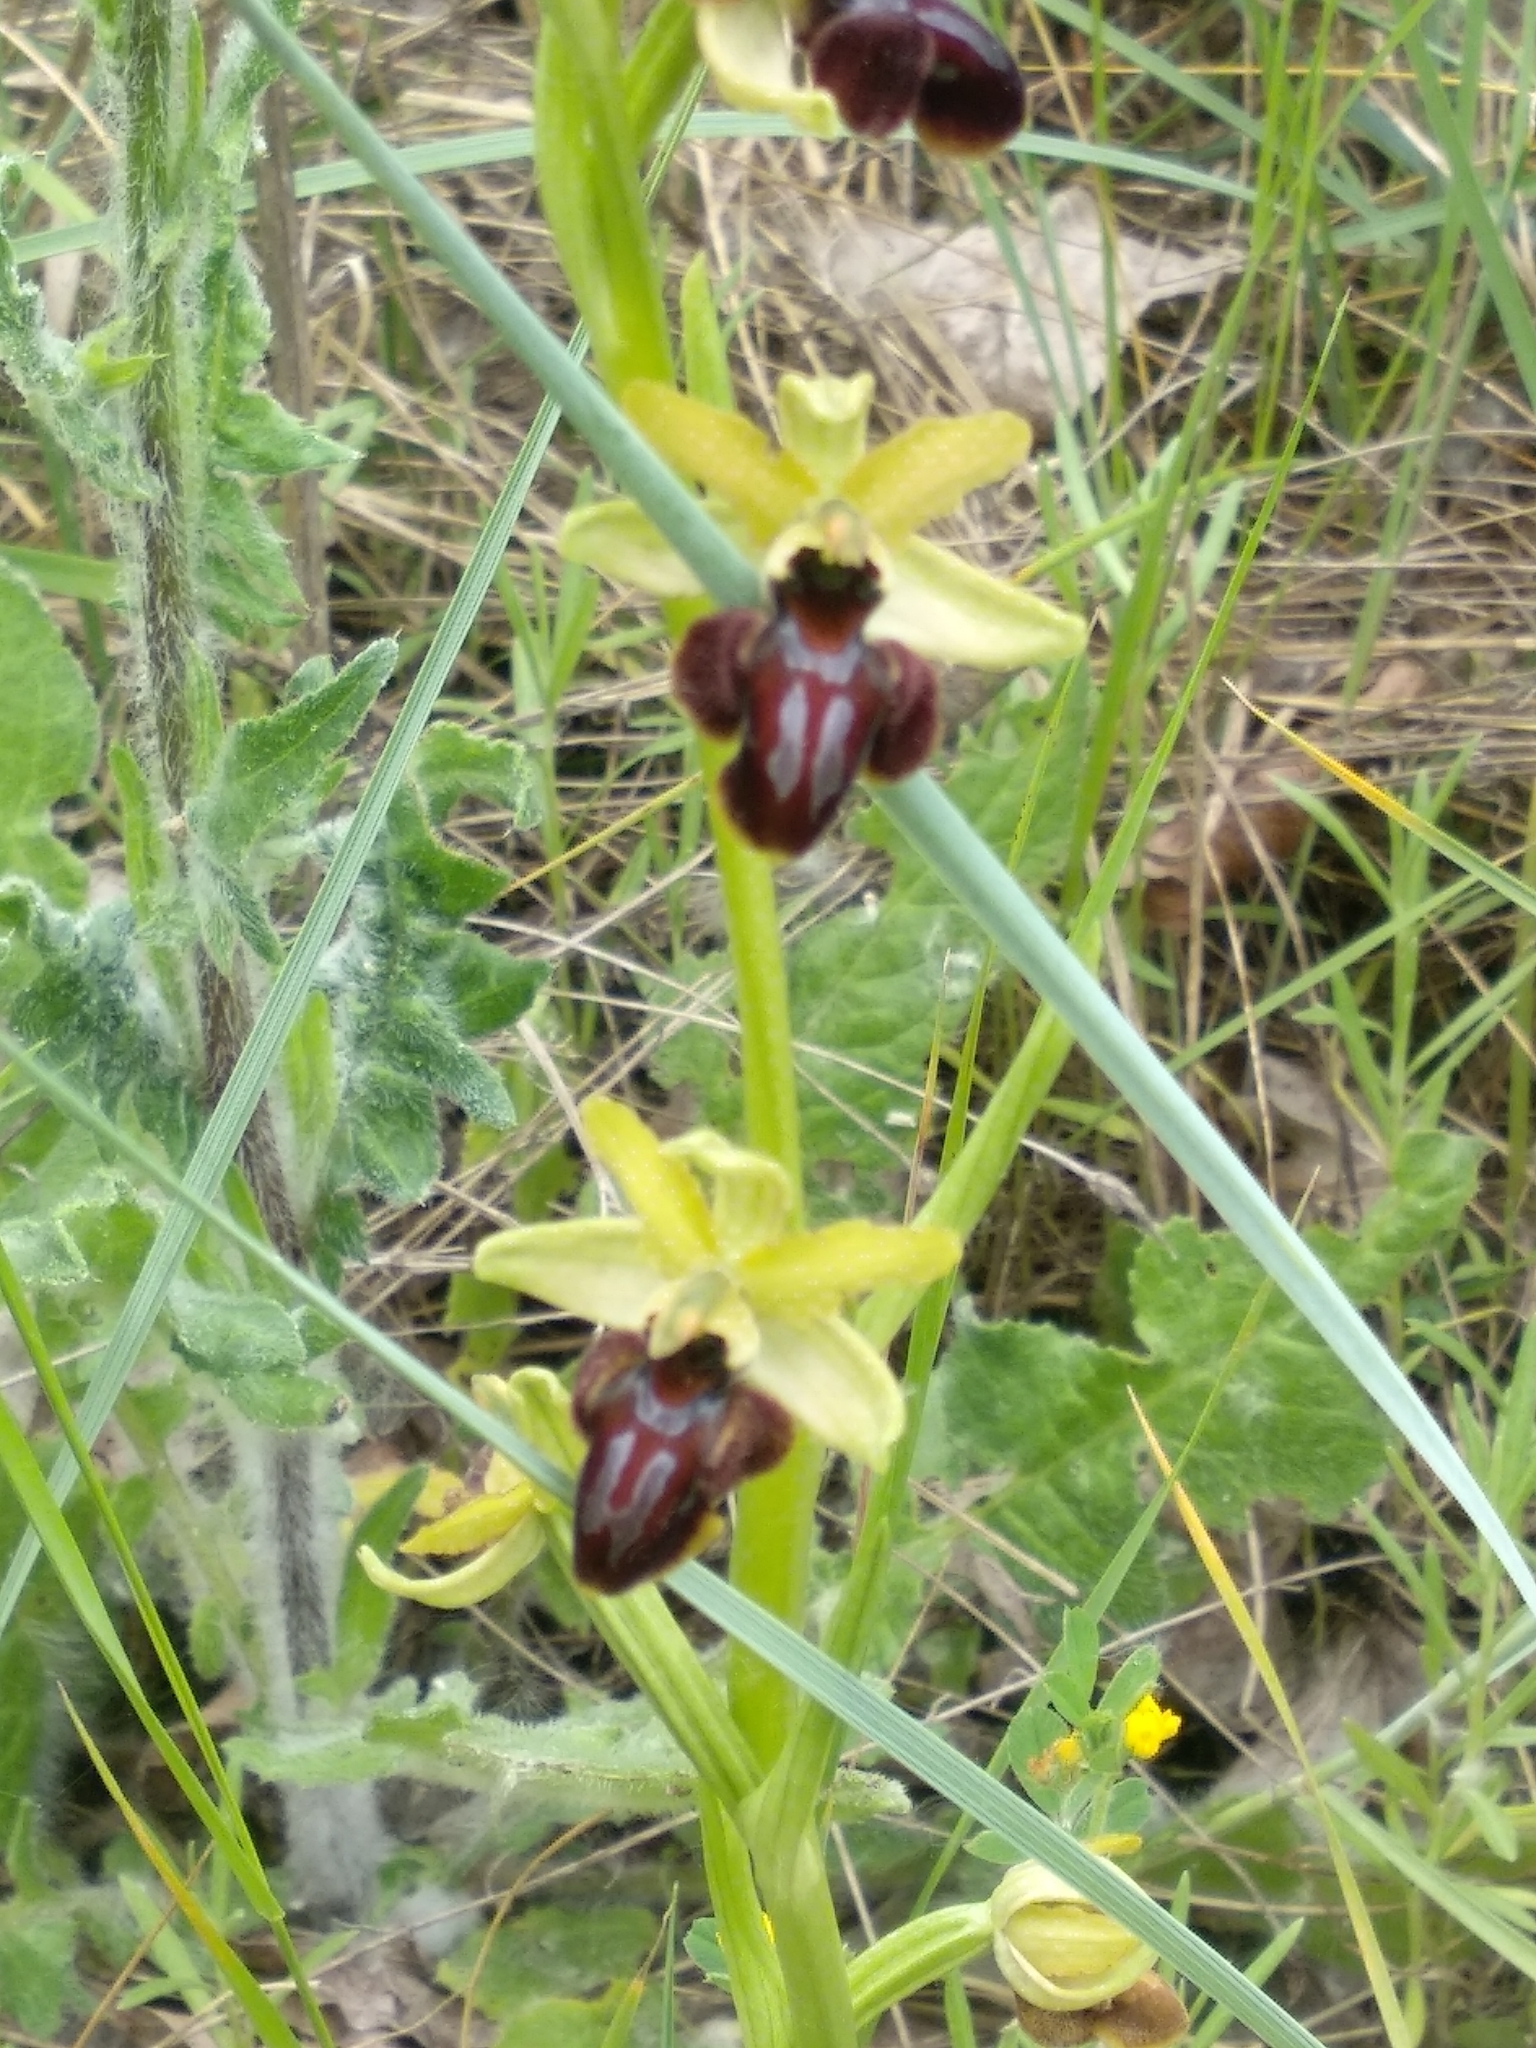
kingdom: Plantae
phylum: Tracheophyta
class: Liliopsida
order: Asparagales
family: Orchidaceae
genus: Ophrys
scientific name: Ophrys sphegodes
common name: Early spider-orchid
